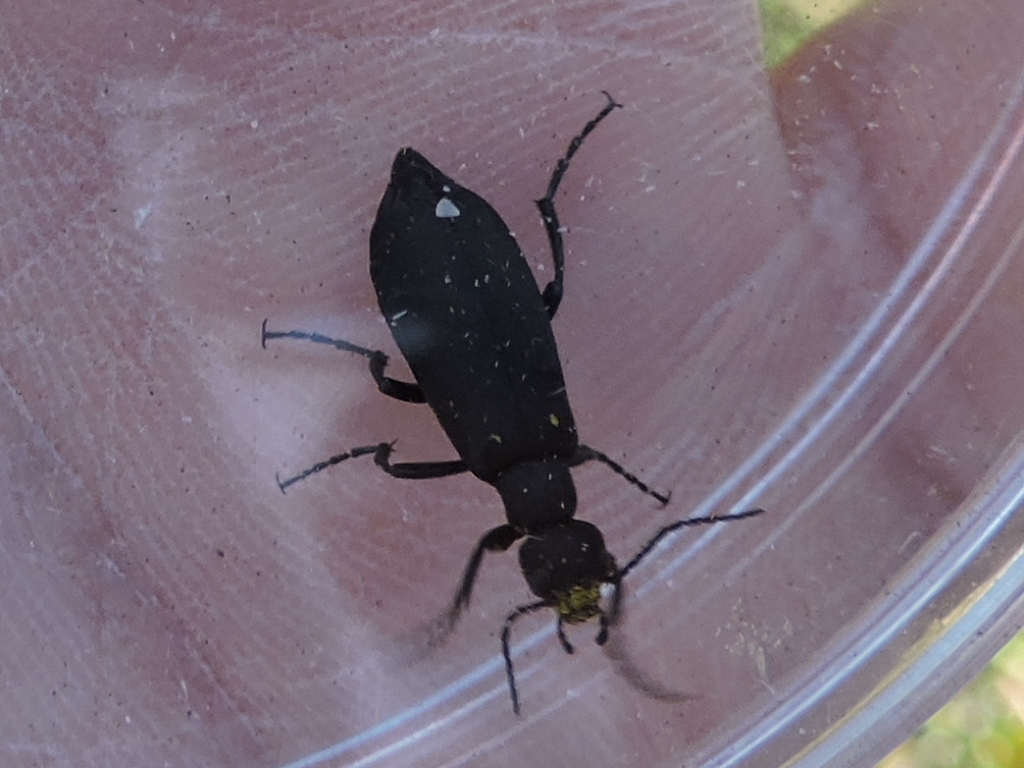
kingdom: Animalia
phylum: Arthropoda
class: Insecta
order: Coleoptera
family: Meloidae
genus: Epicauta
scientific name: Epicauta pensylvanica
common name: Black blister beetle
